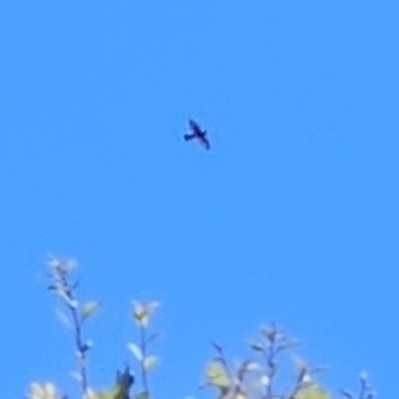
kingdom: Animalia
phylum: Chordata
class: Aves
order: Falconiformes
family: Falconidae
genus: Falco
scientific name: Falco novaeseelandiae
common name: New zealand falcon
